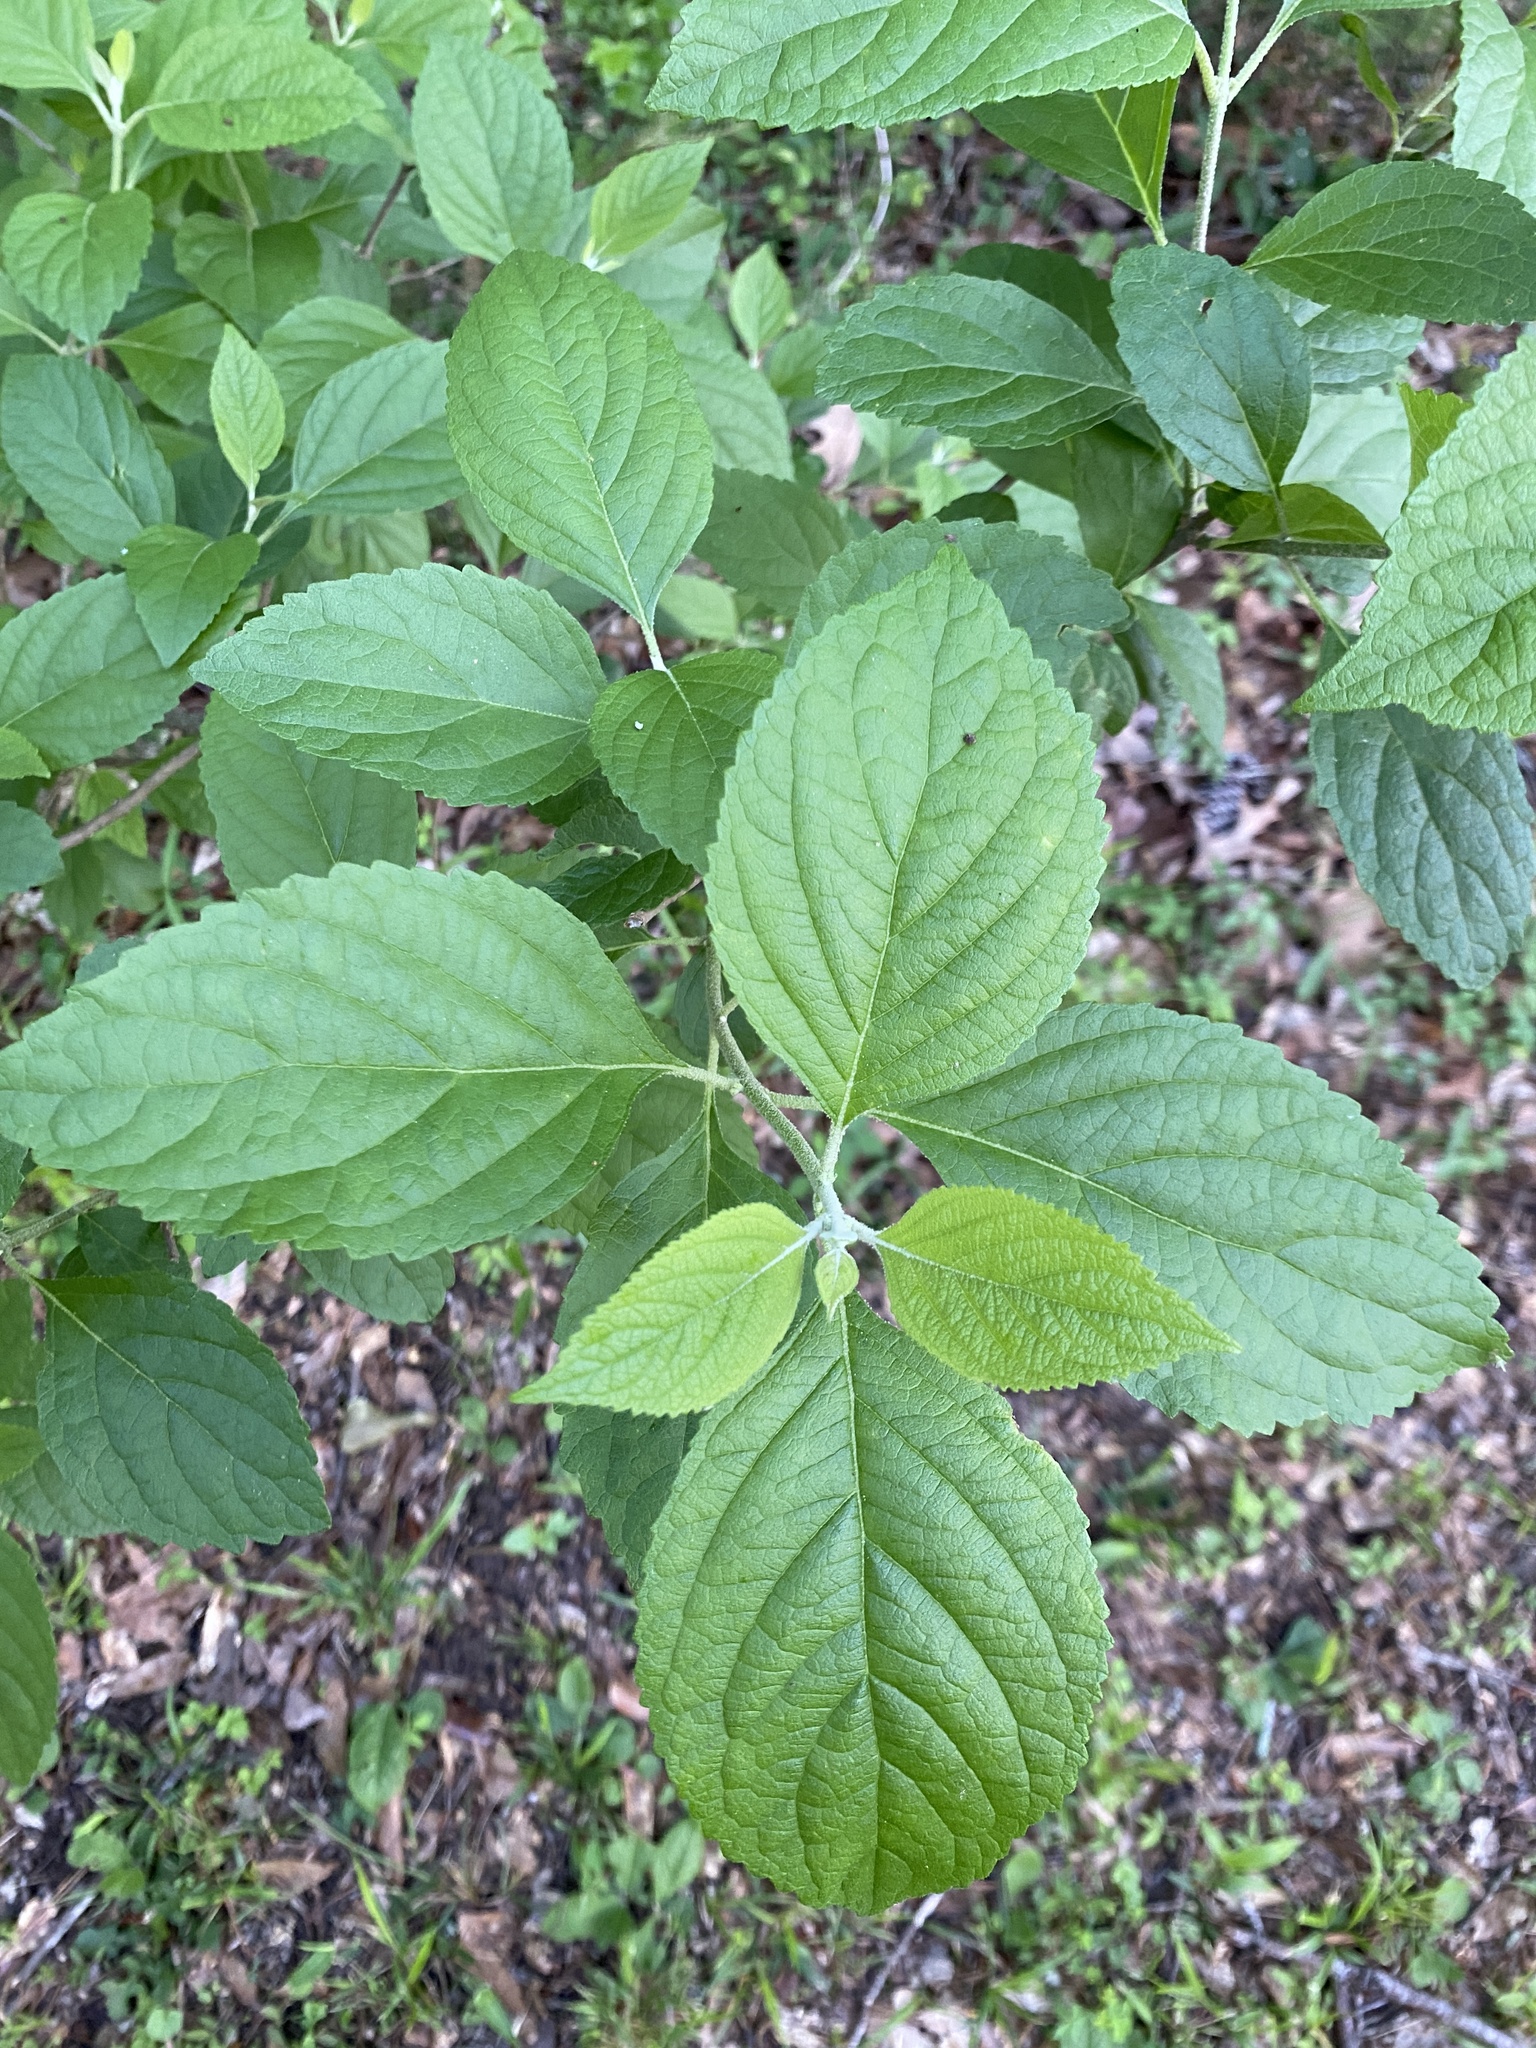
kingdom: Plantae
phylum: Tracheophyta
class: Magnoliopsida
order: Lamiales
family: Lamiaceae
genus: Callicarpa
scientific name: Callicarpa americana
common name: American beautyberry
